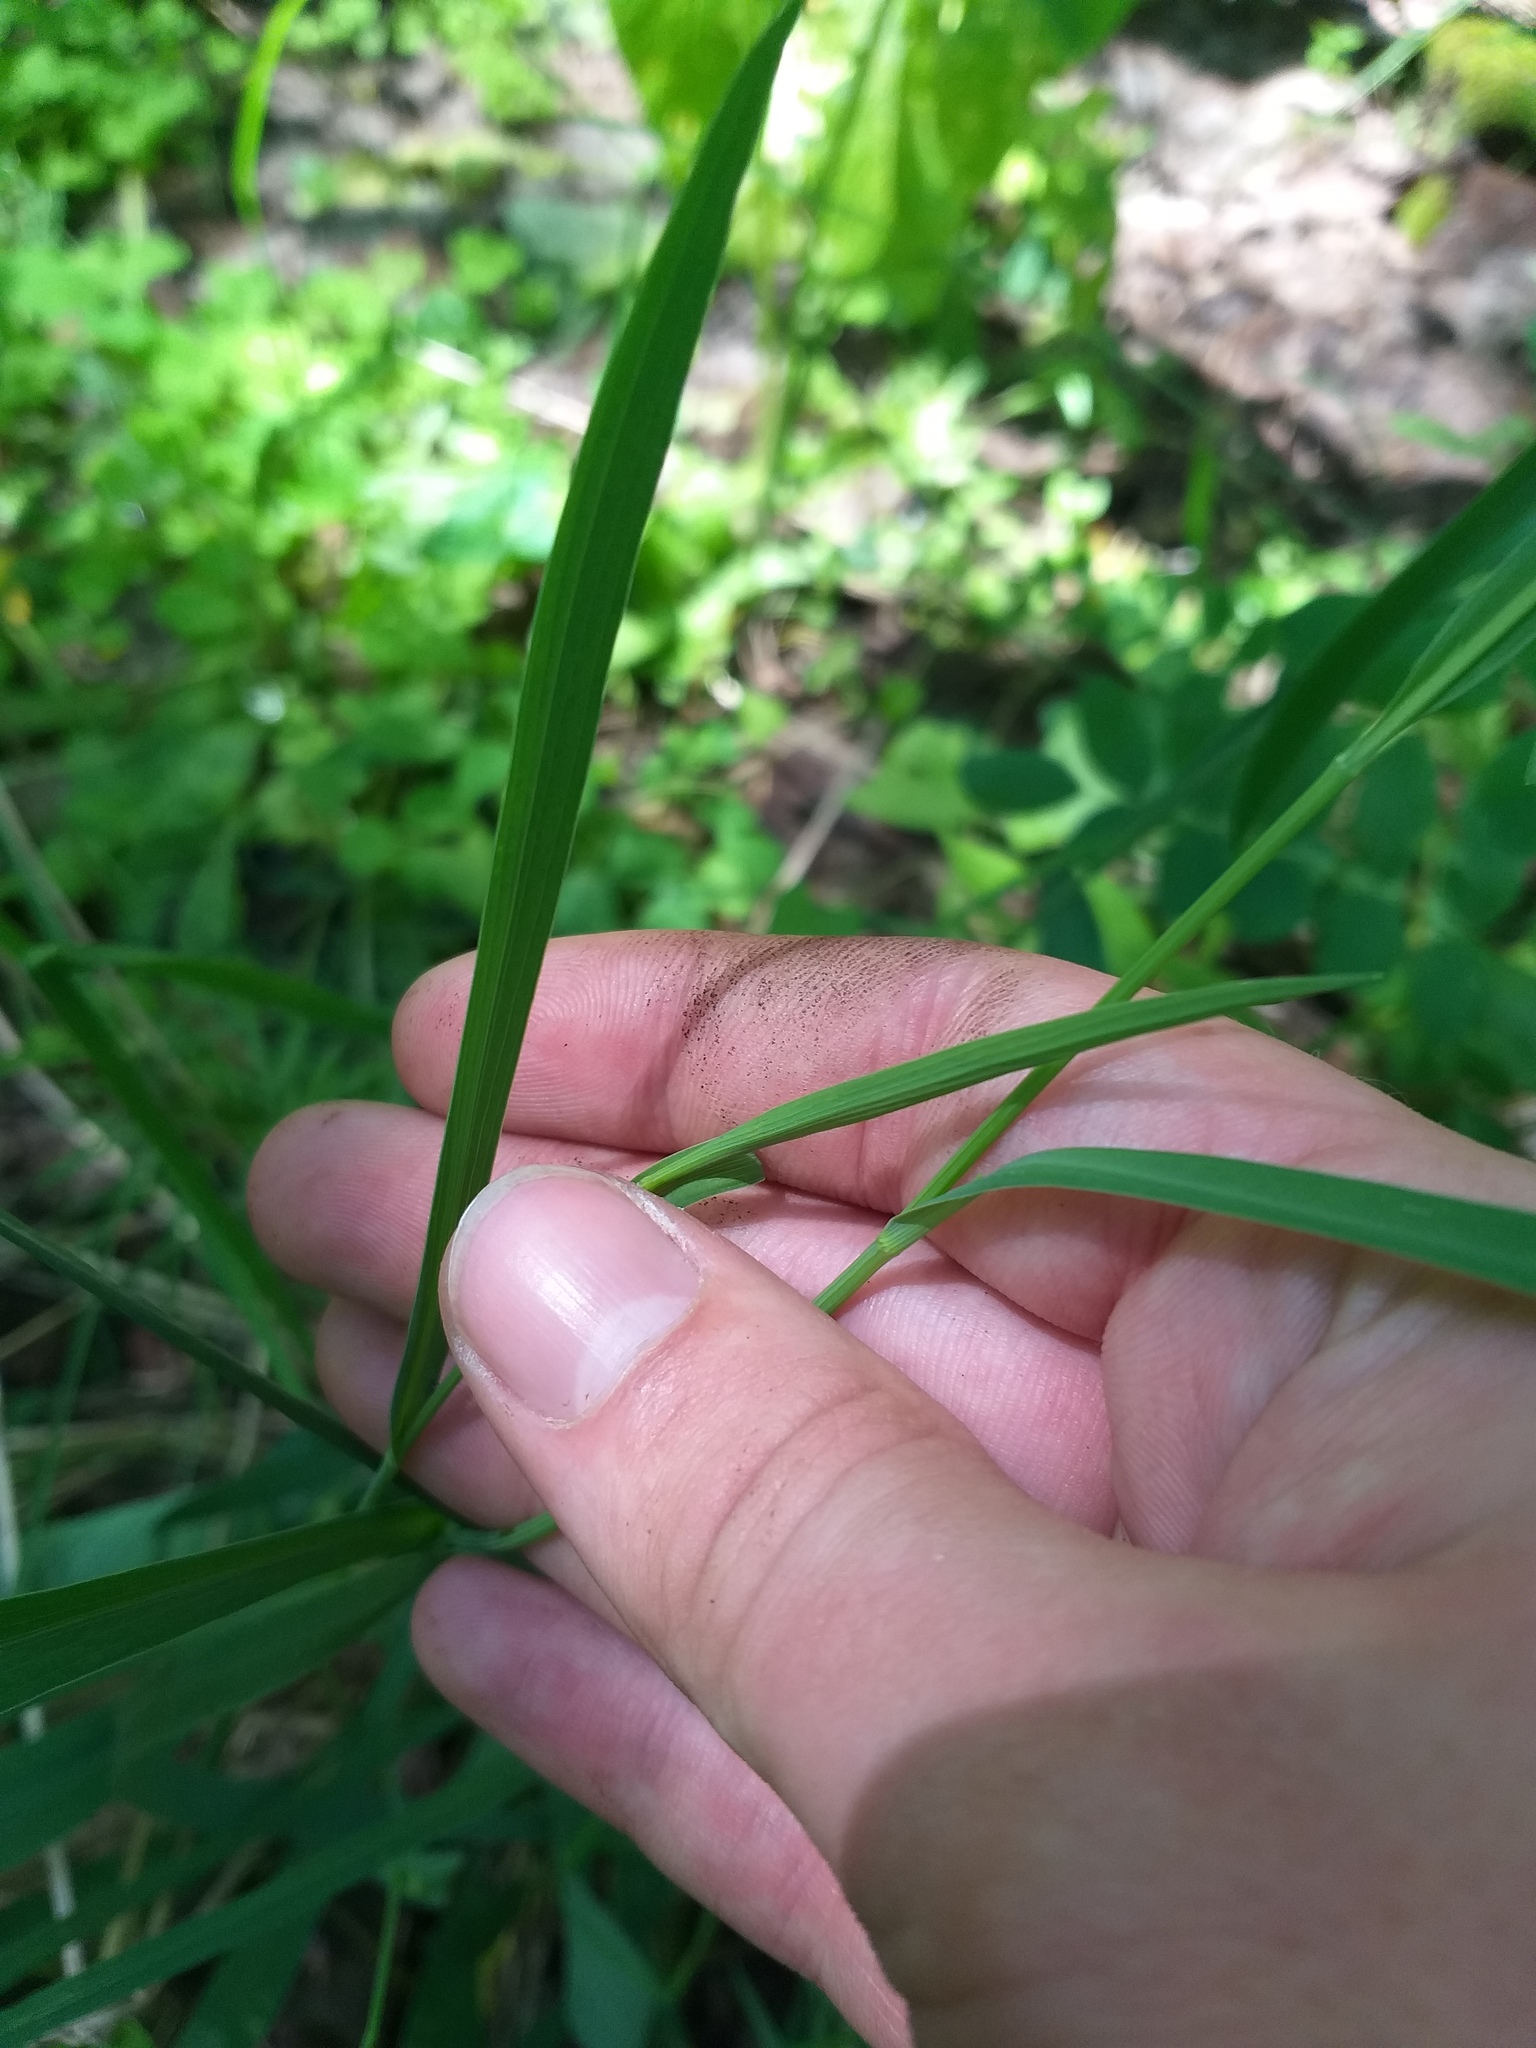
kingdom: Plantae
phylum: Tracheophyta
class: Magnoliopsida
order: Apiales
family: Apiaceae
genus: Bupleurum
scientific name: Bupleurum falcatum
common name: Sickle-leaved hare's-ear
